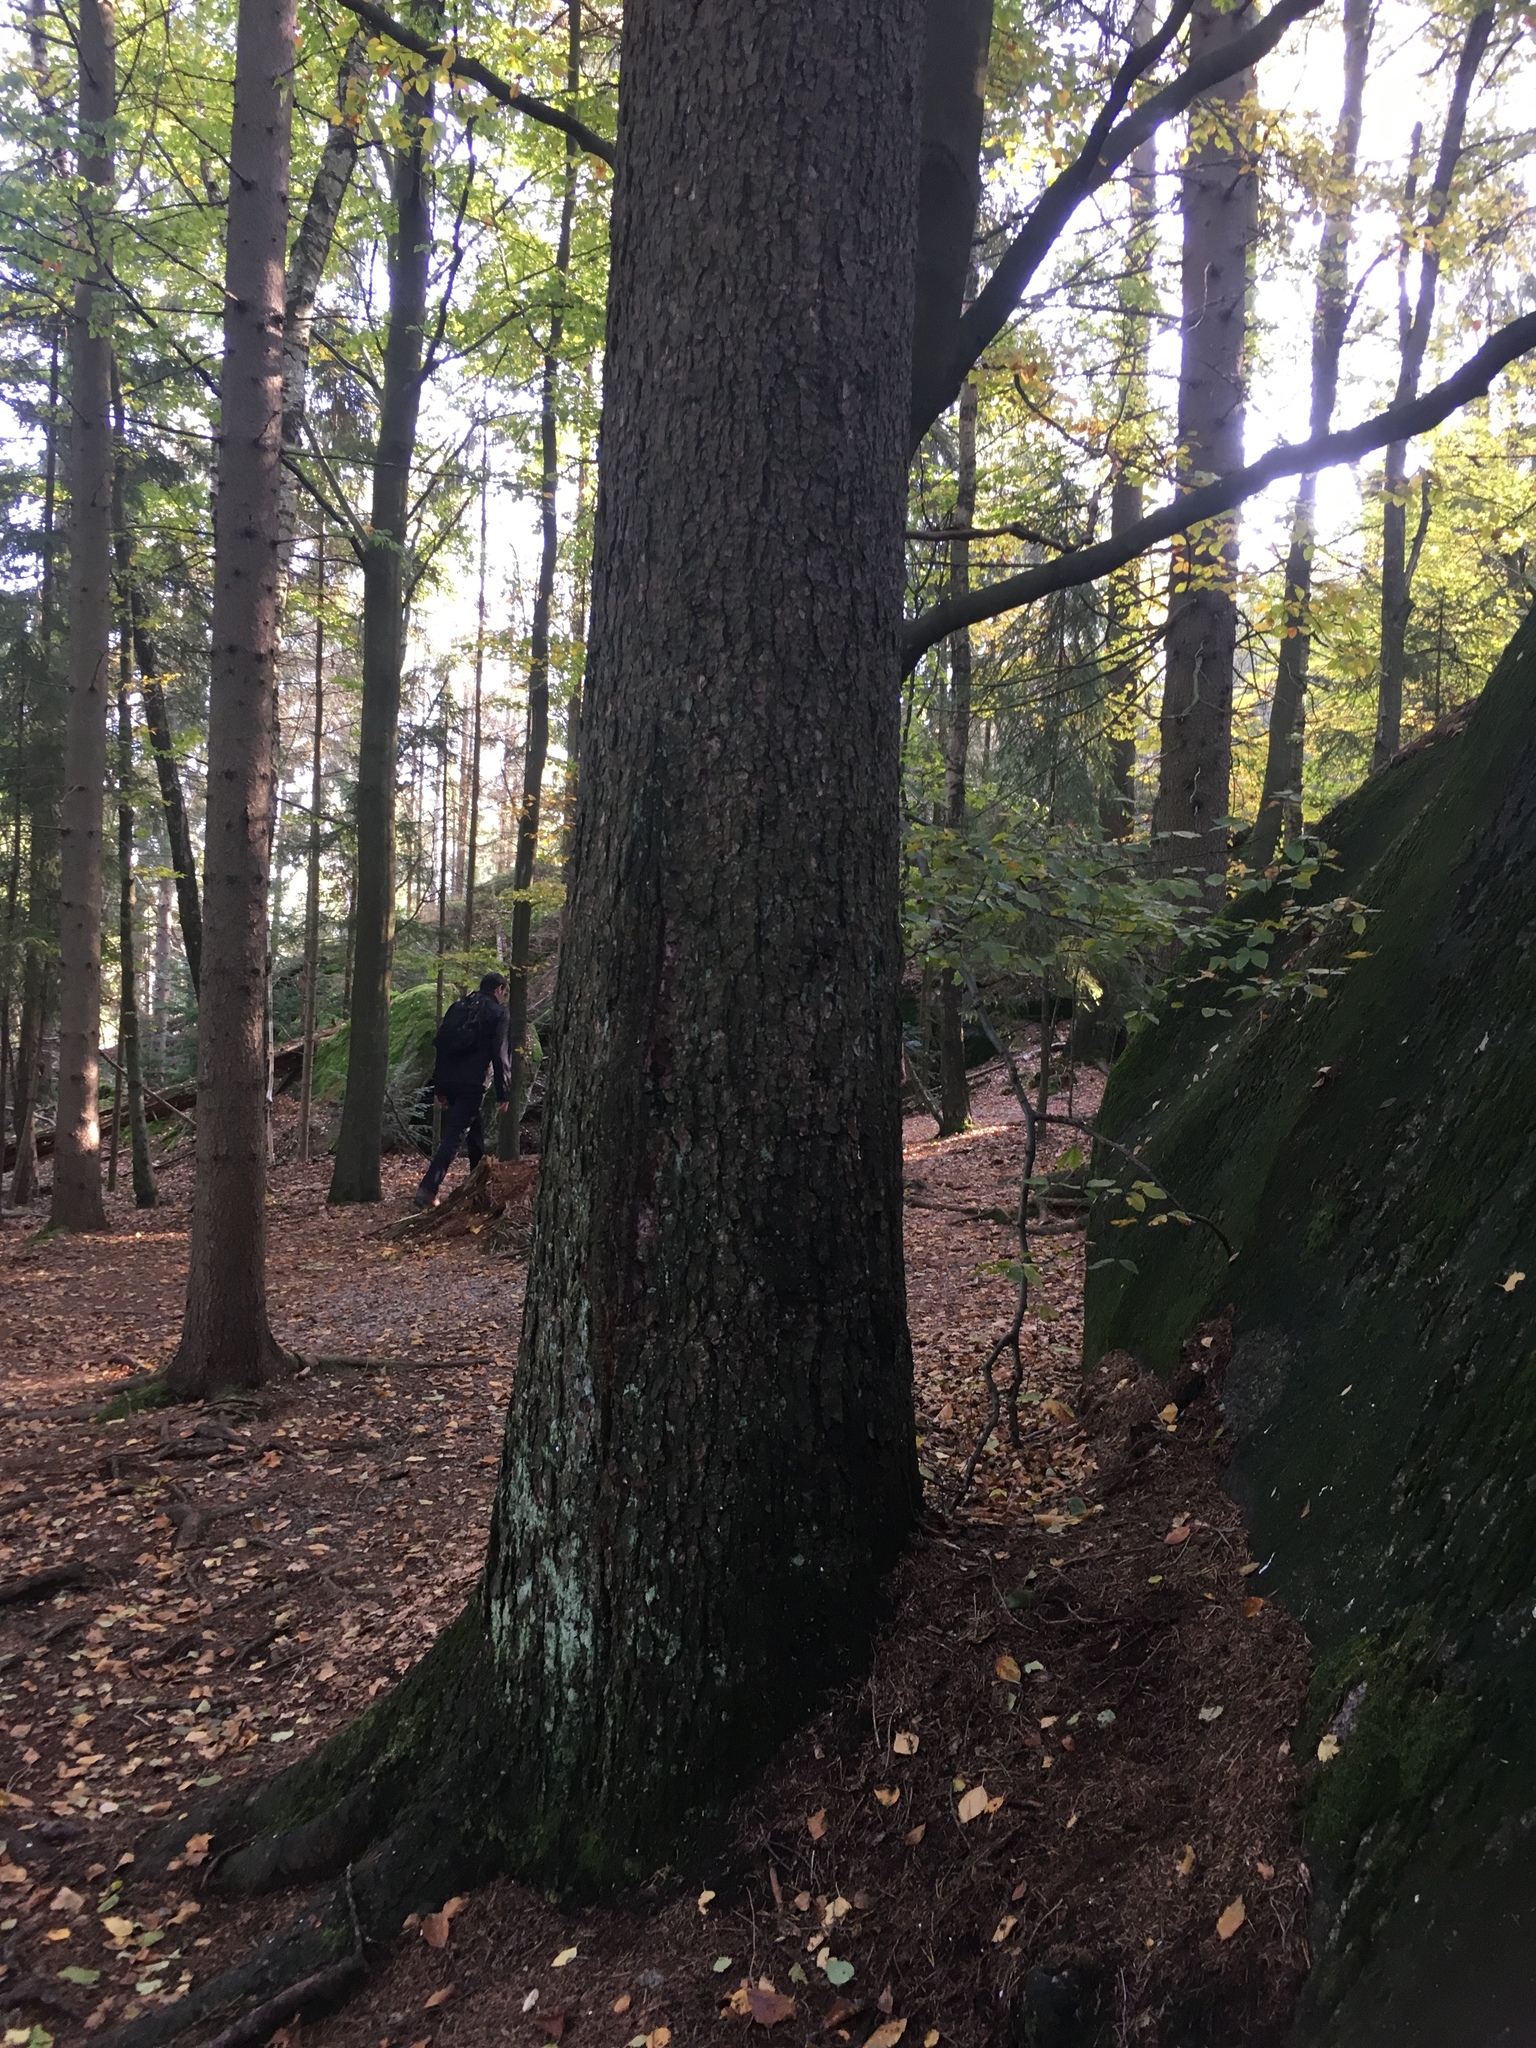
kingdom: Plantae
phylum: Tracheophyta
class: Magnoliopsida
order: Fagales
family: Fagaceae
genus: Fagus
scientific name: Fagus sylvatica
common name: Beech
